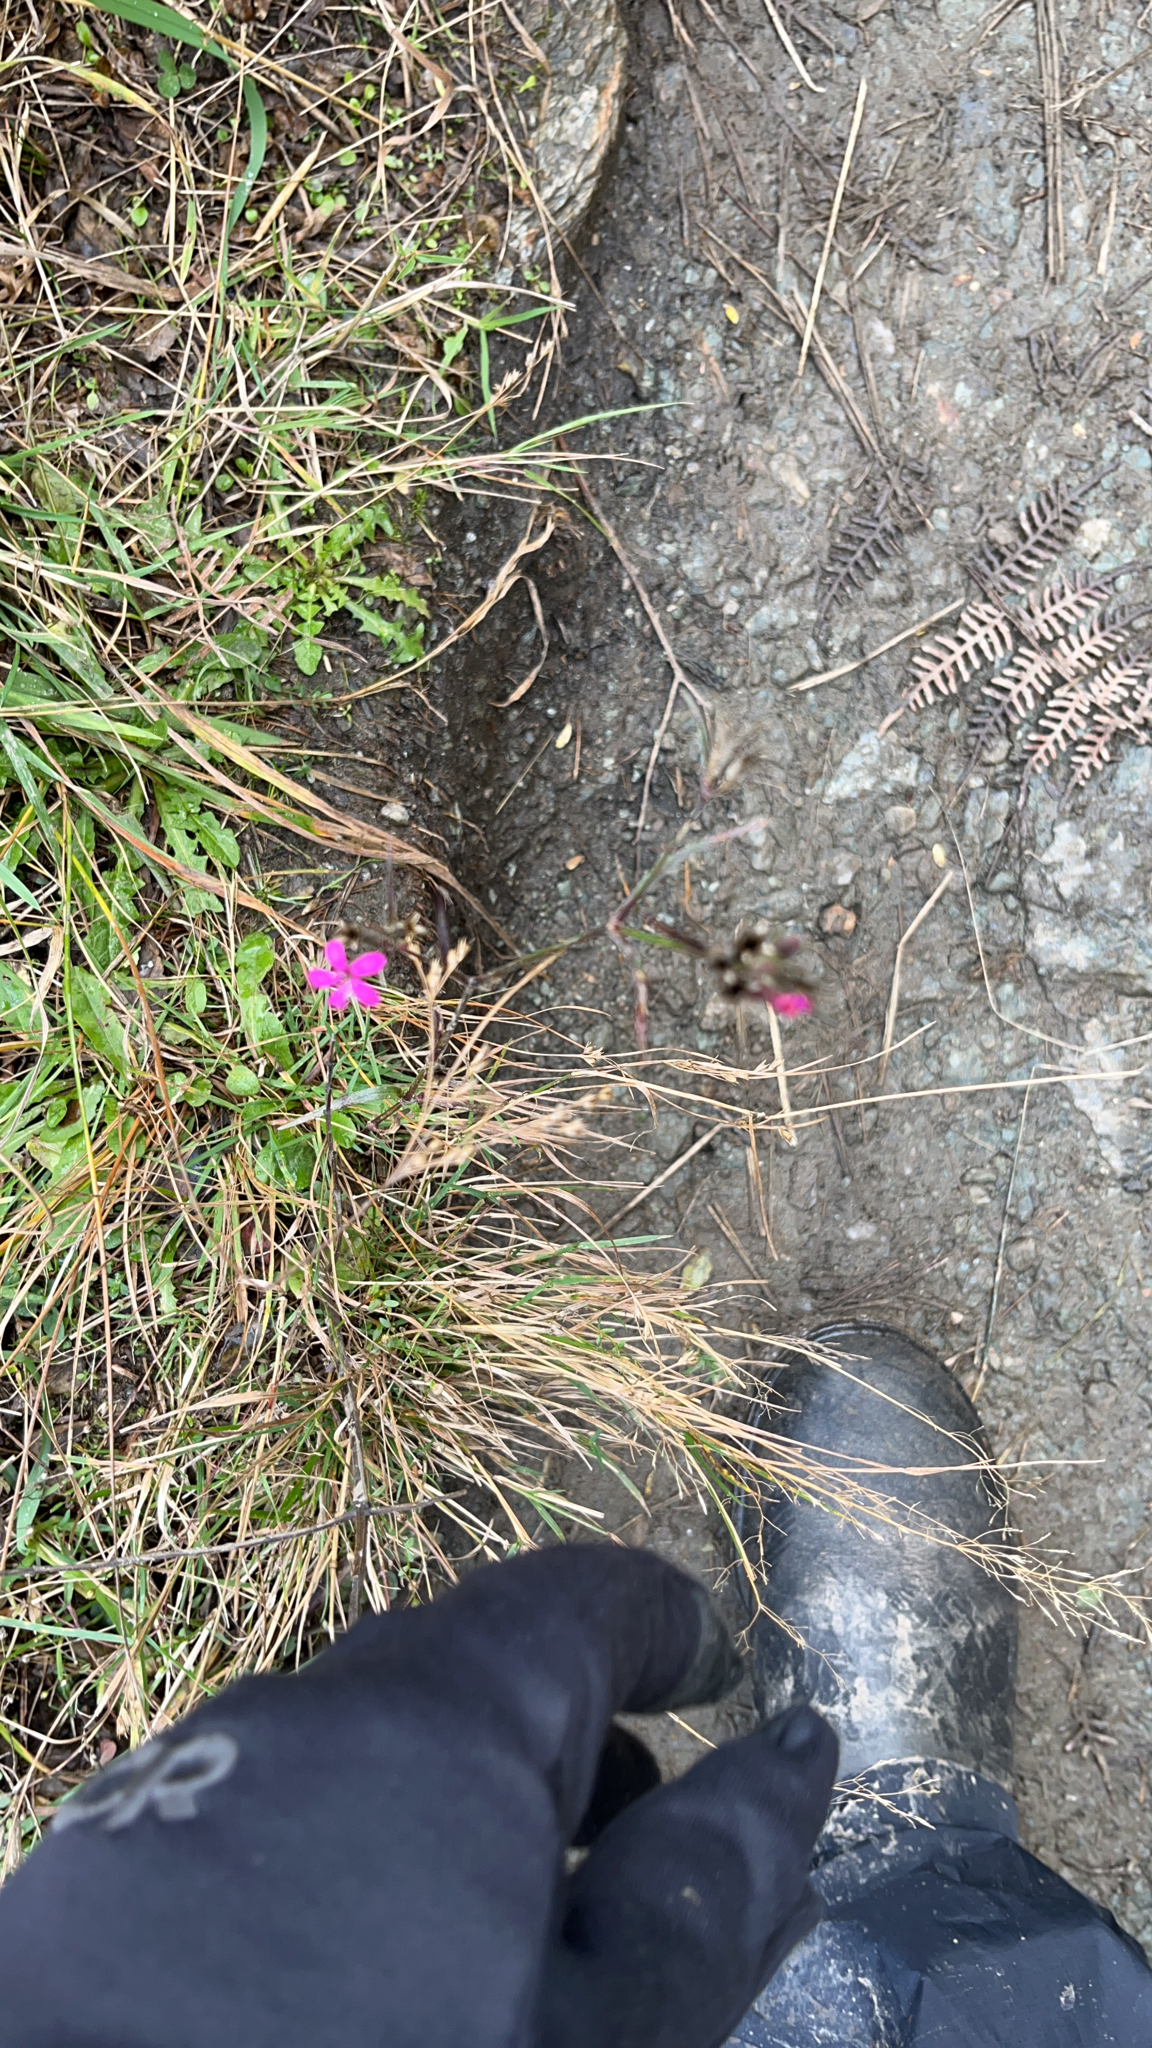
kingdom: Plantae
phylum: Tracheophyta
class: Magnoliopsida
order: Caryophyllales
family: Caryophyllaceae
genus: Dianthus
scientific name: Dianthus armeria
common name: Deptford pink
